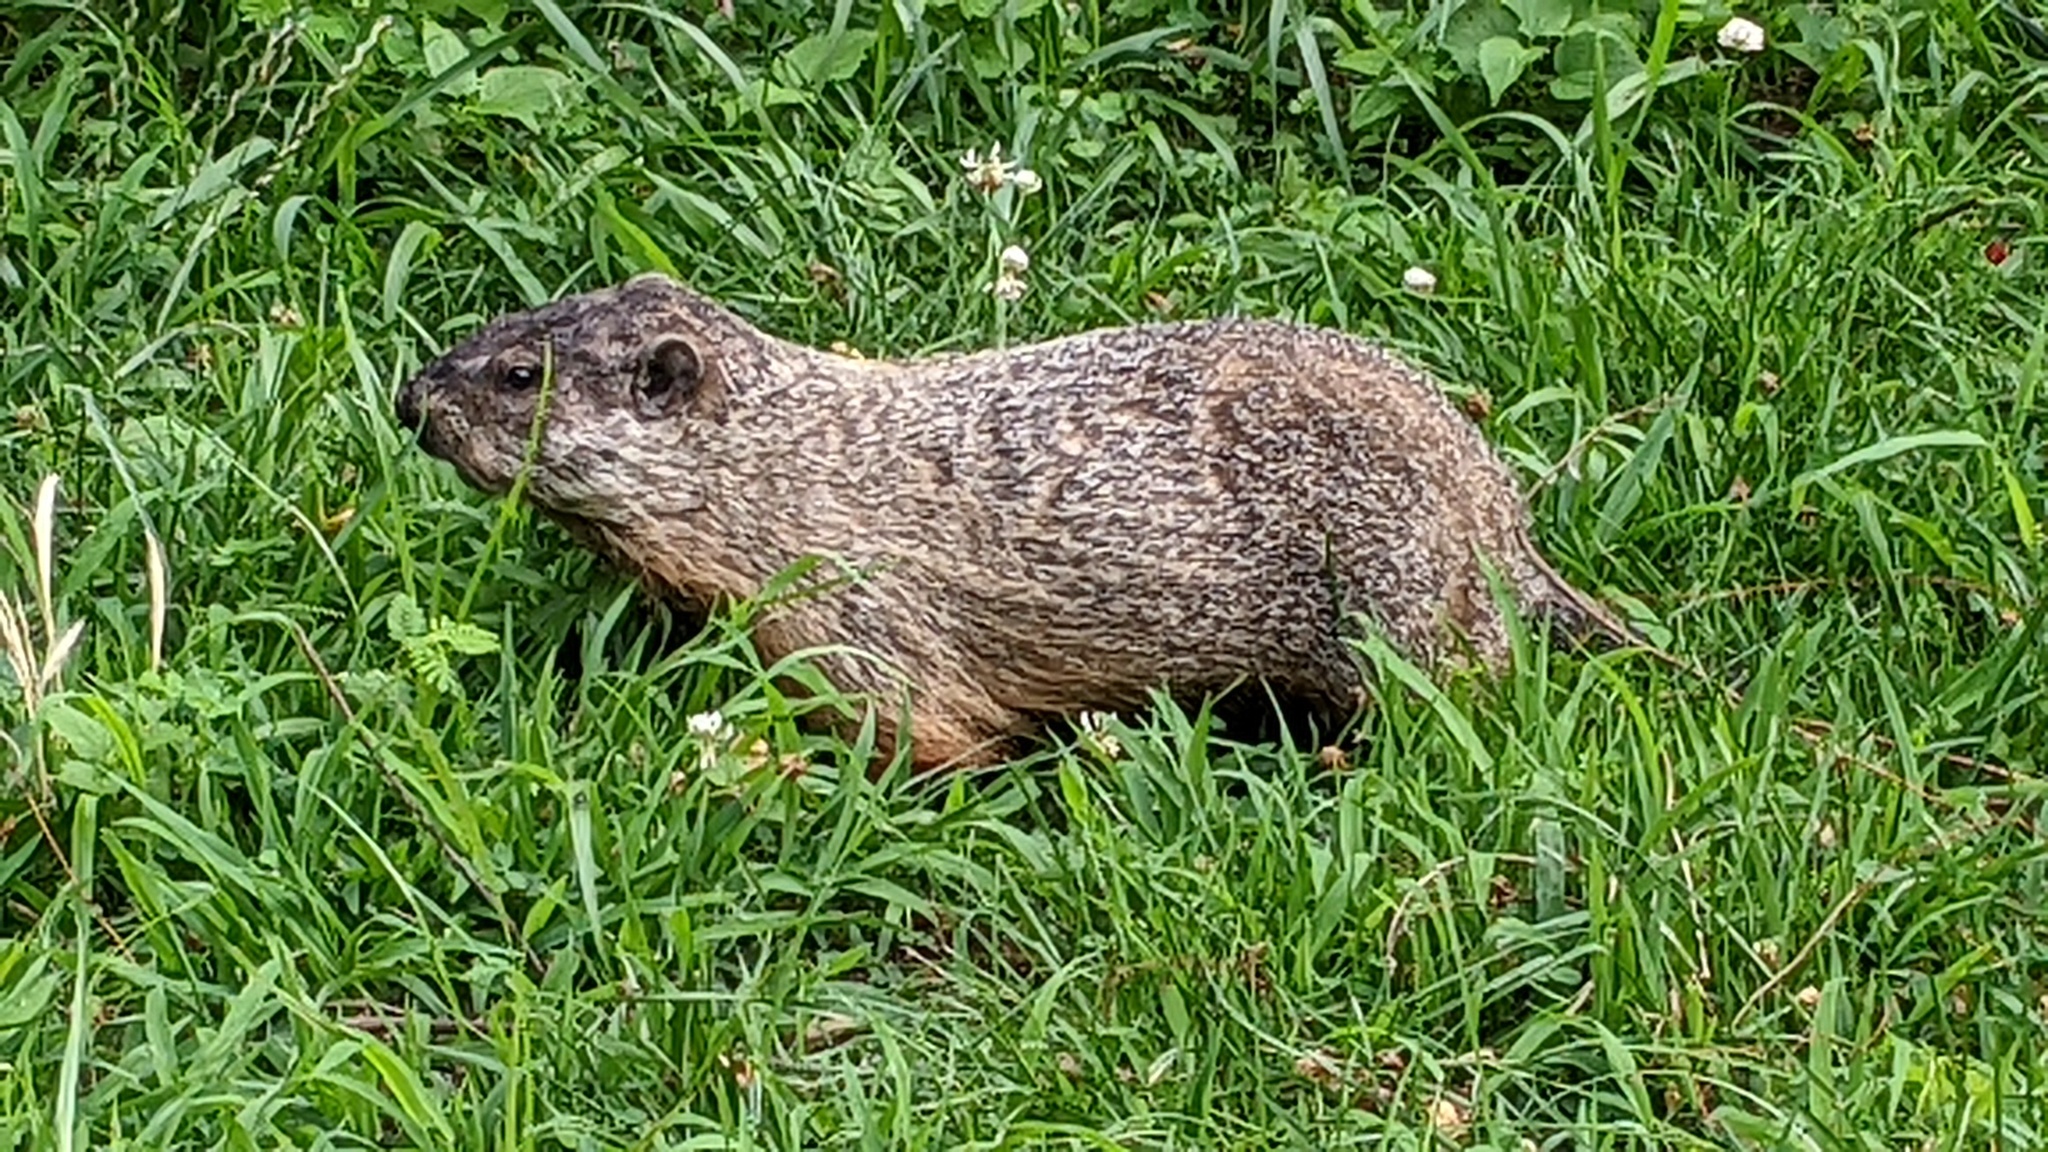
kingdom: Animalia
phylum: Chordata
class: Mammalia
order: Rodentia
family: Sciuridae
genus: Marmota
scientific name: Marmota monax
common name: Groundhog
